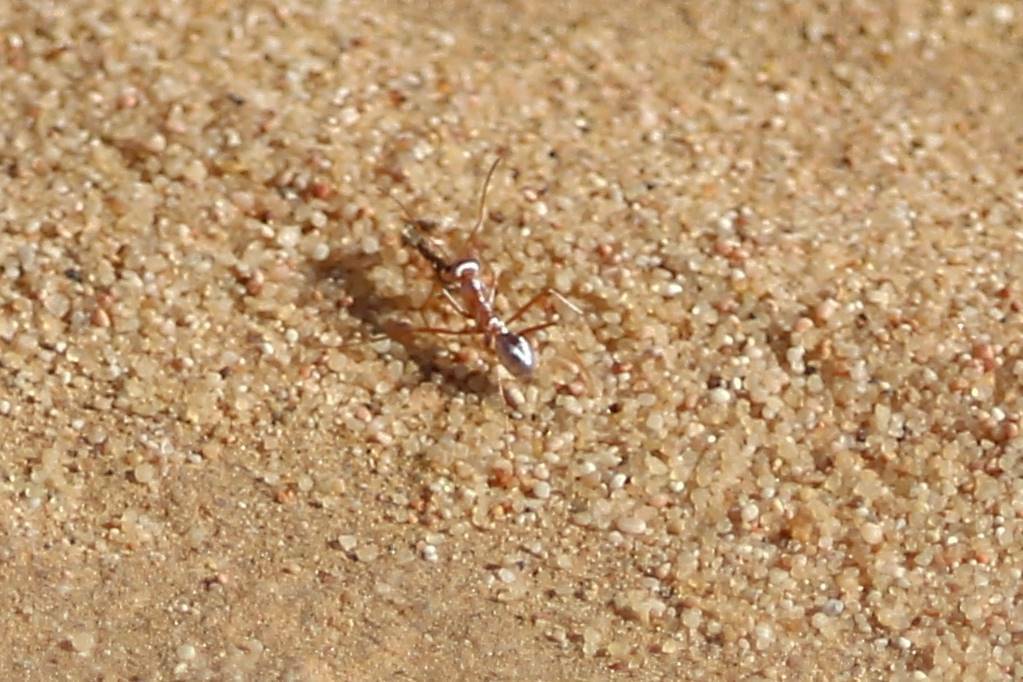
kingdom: Animalia
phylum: Arthropoda
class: Insecta
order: Hymenoptera
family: Formicidae
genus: Cataglyphis
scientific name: Cataglyphis bombycinus
